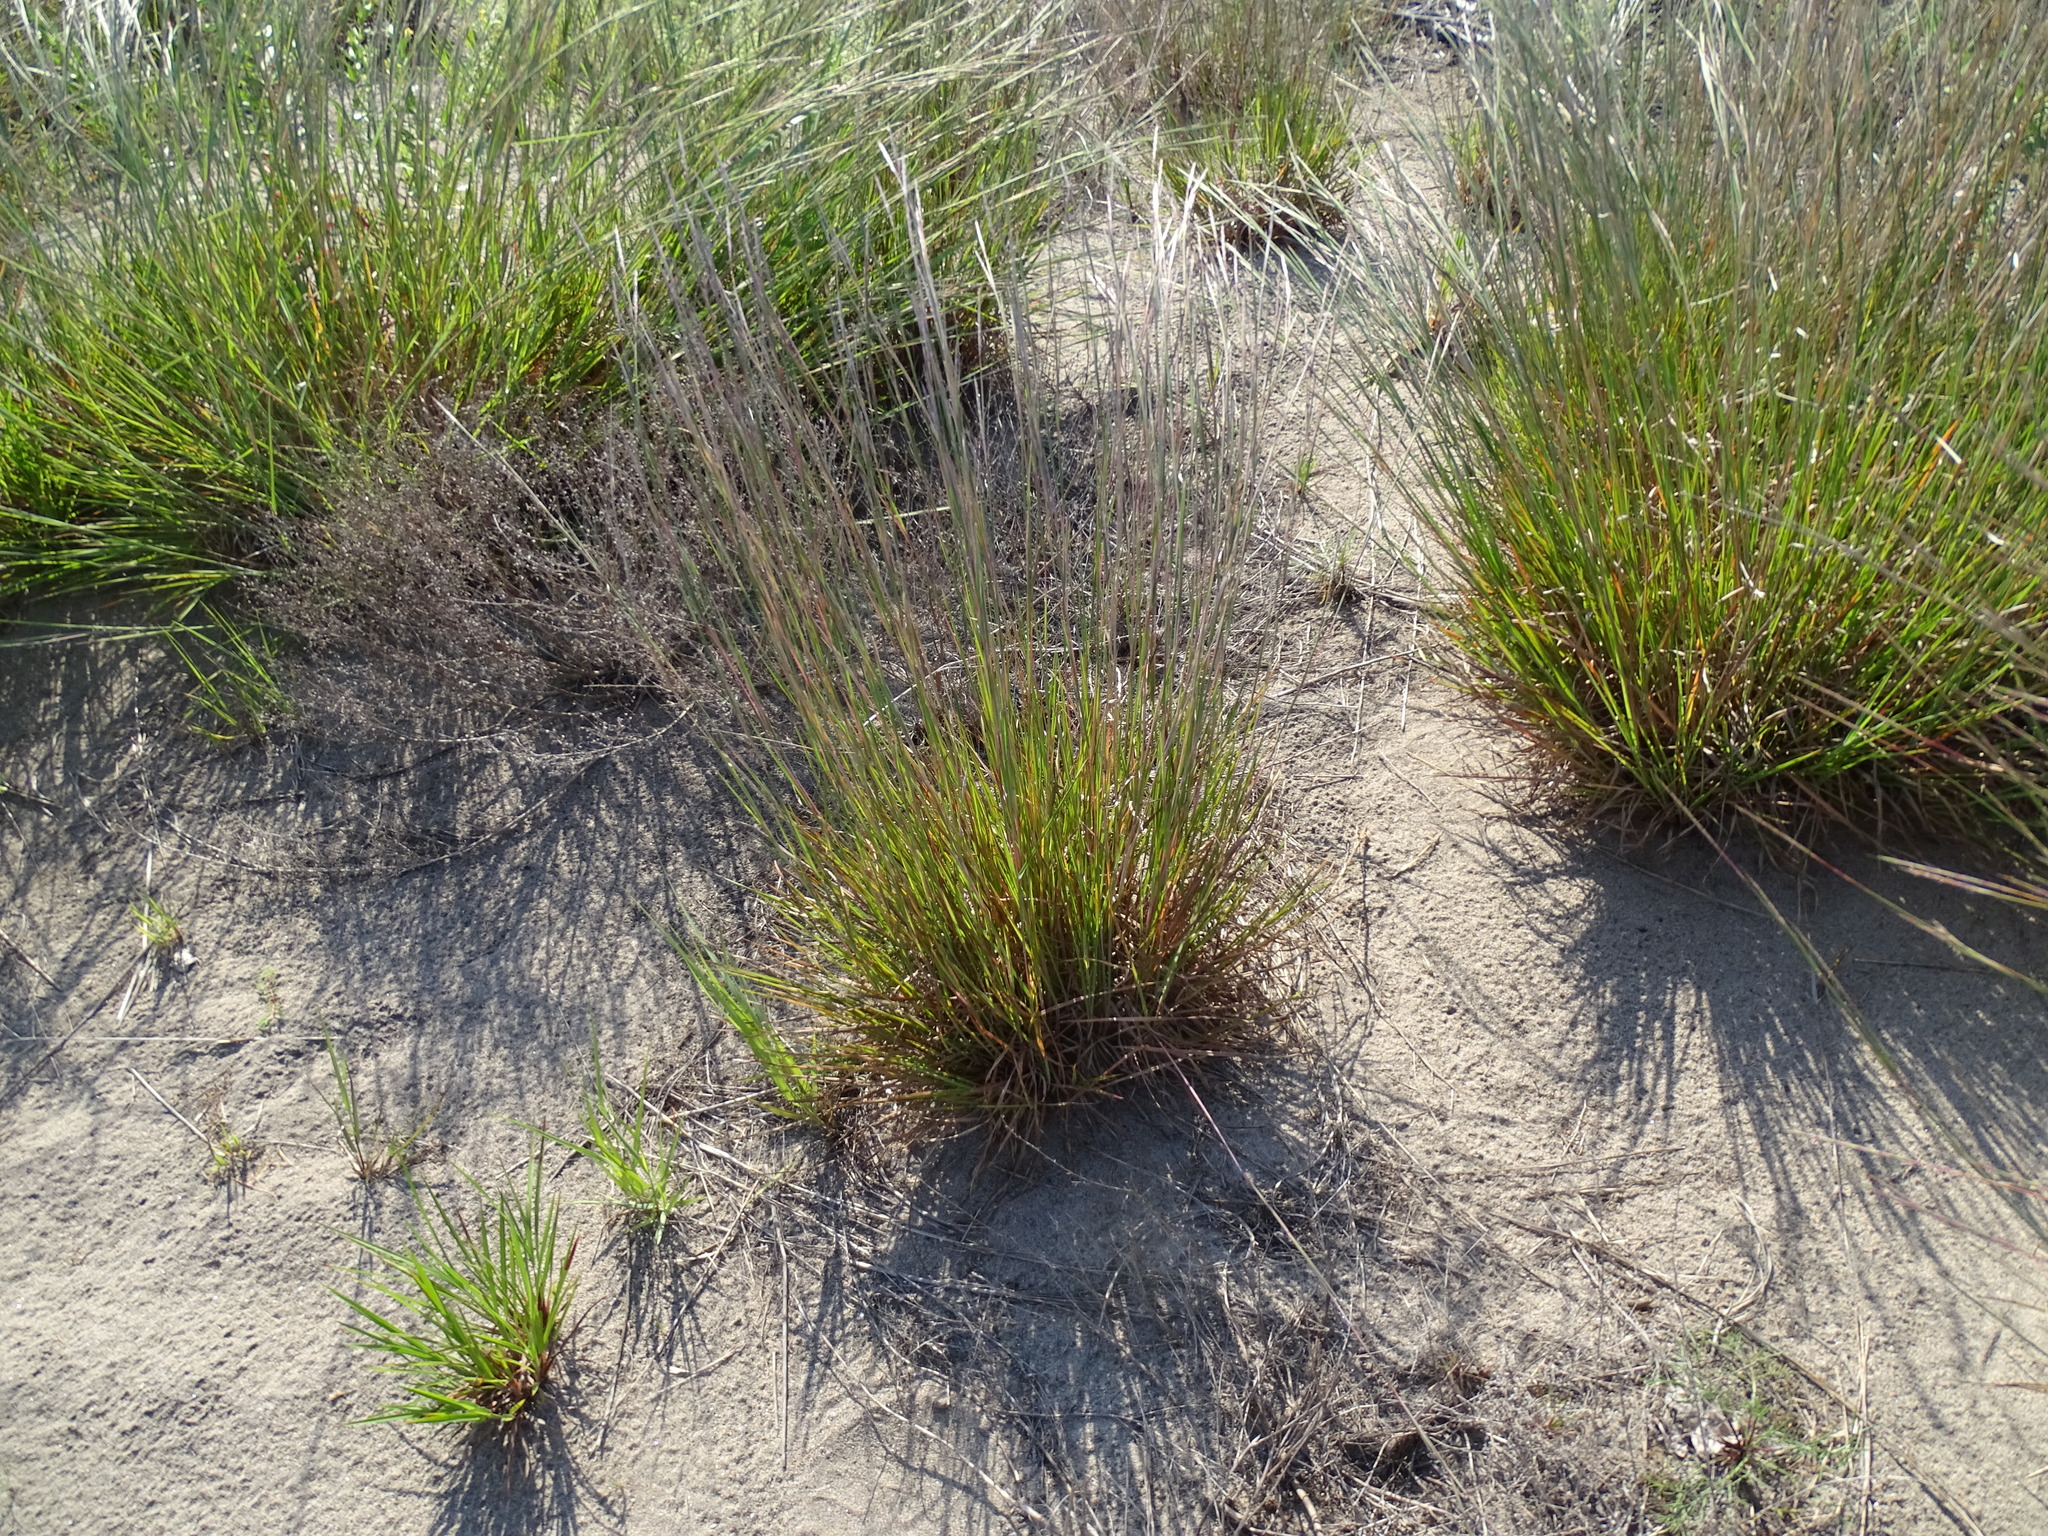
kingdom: Plantae
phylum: Tracheophyta
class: Liliopsida
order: Poales
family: Poaceae
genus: Schizachyrium
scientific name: Schizachyrium scoparium
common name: Little bluestem
